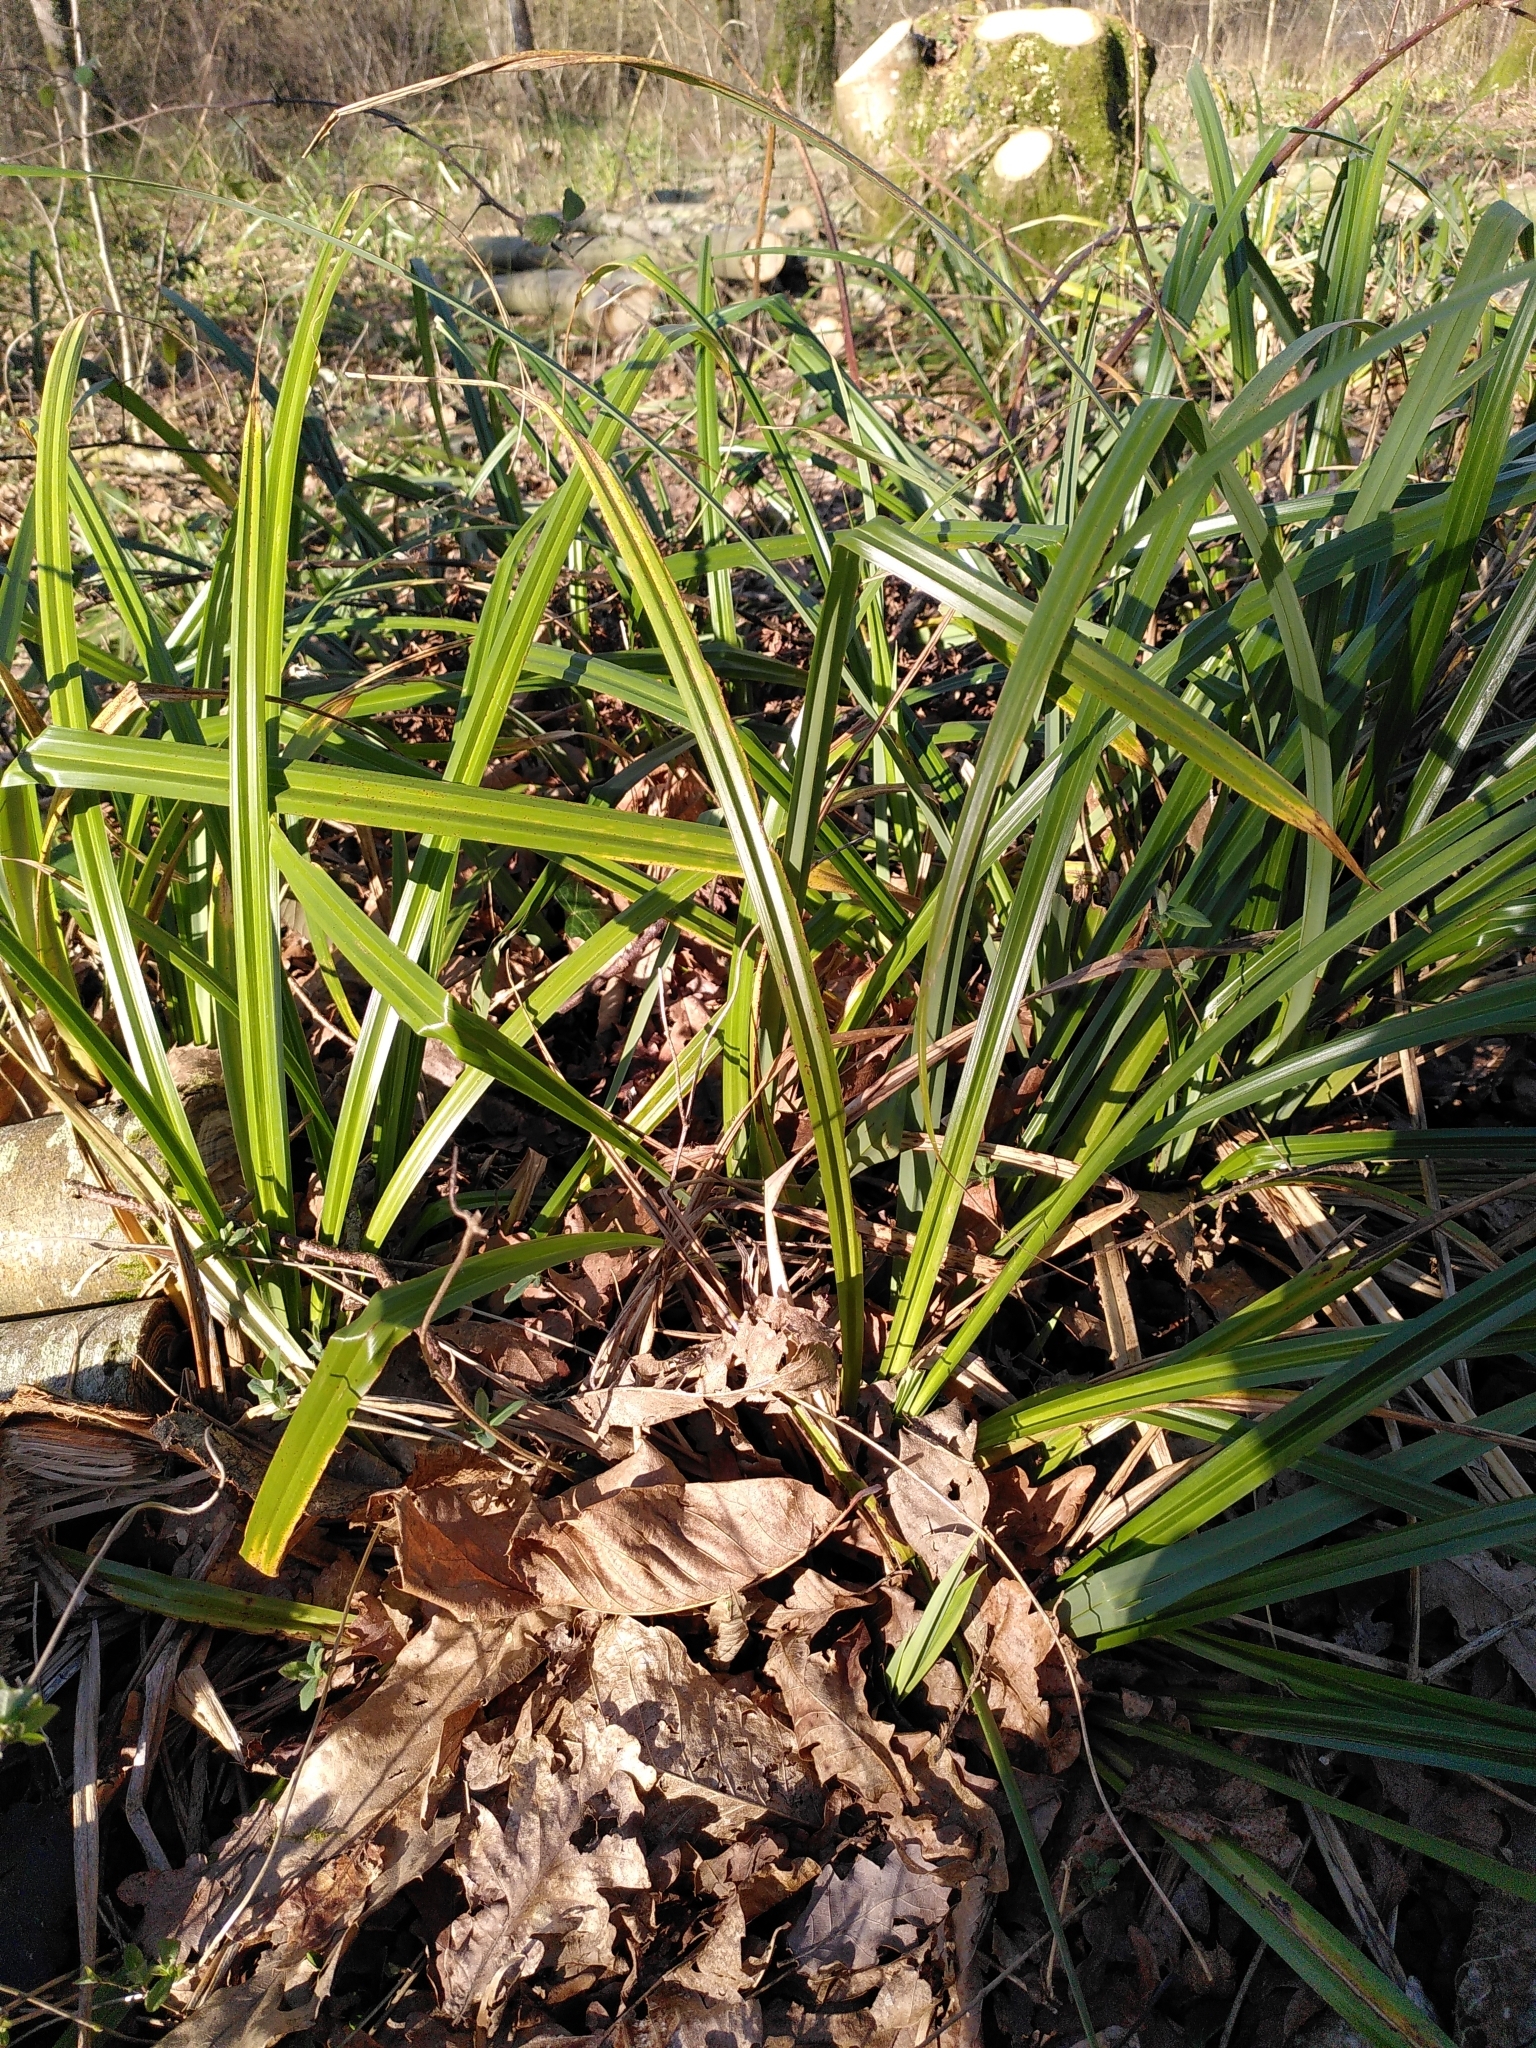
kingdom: Plantae
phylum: Tracheophyta
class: Liliopsida
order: Poales
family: Cyperaceae
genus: Carex
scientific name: Carex pendula
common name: Pendulous sedge
